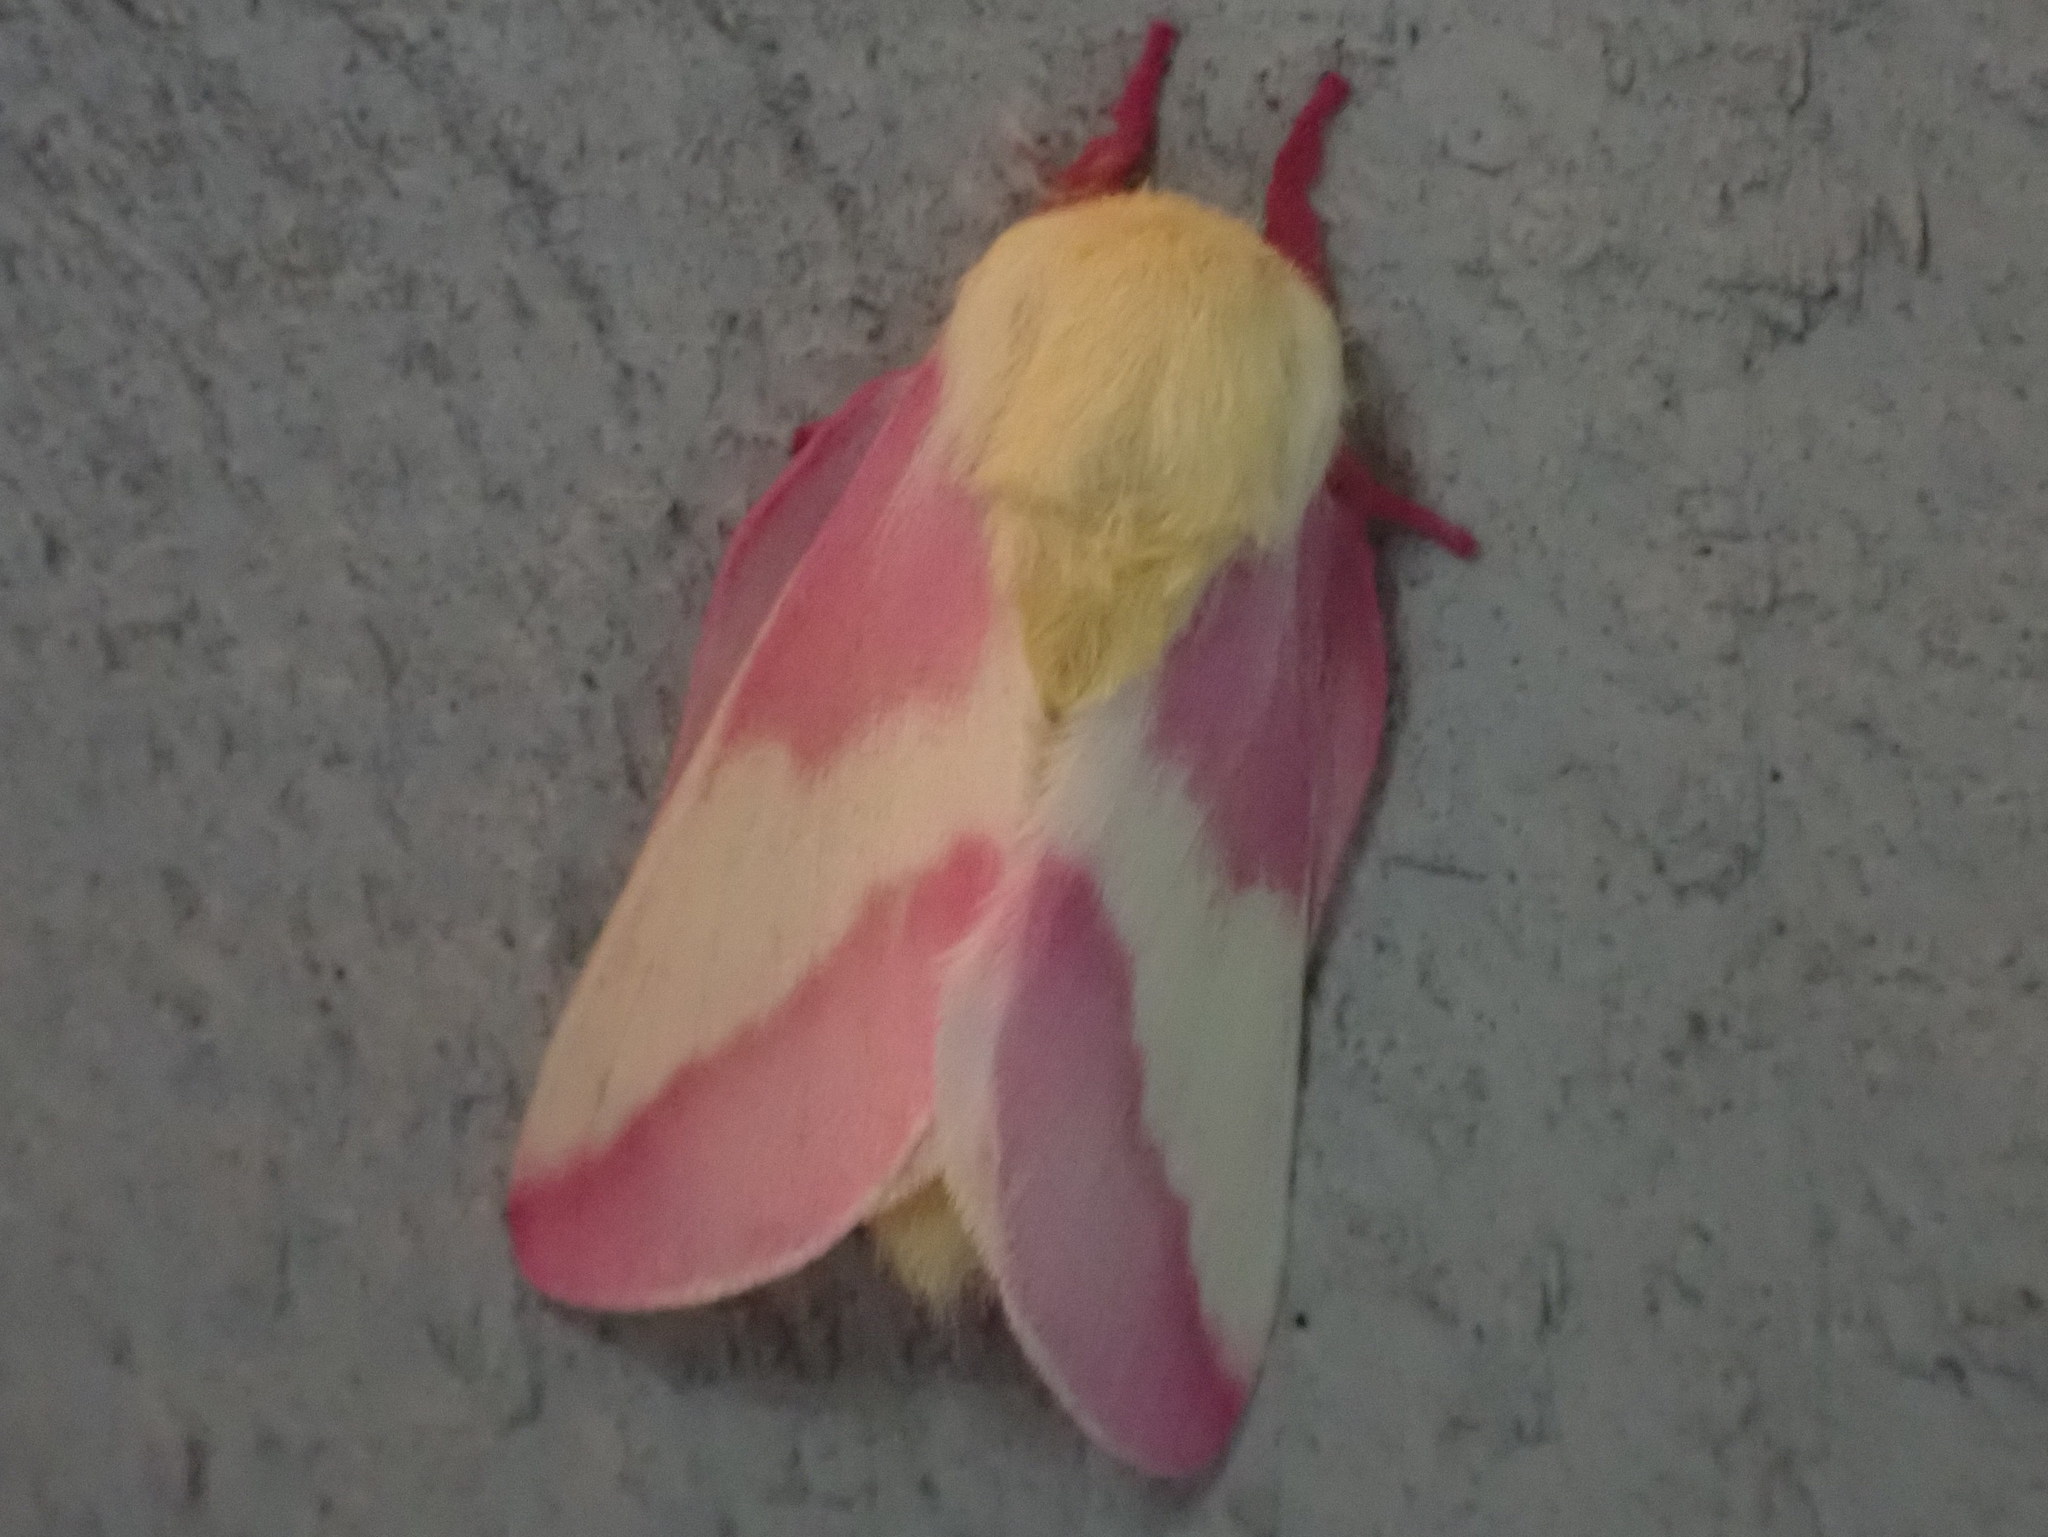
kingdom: Animalia
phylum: Arthropoda
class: Insecta
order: Lepidoptera
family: Saturniidae
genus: Dryocampa
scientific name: Dryocampa rubicunda
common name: Rosy maple moth
